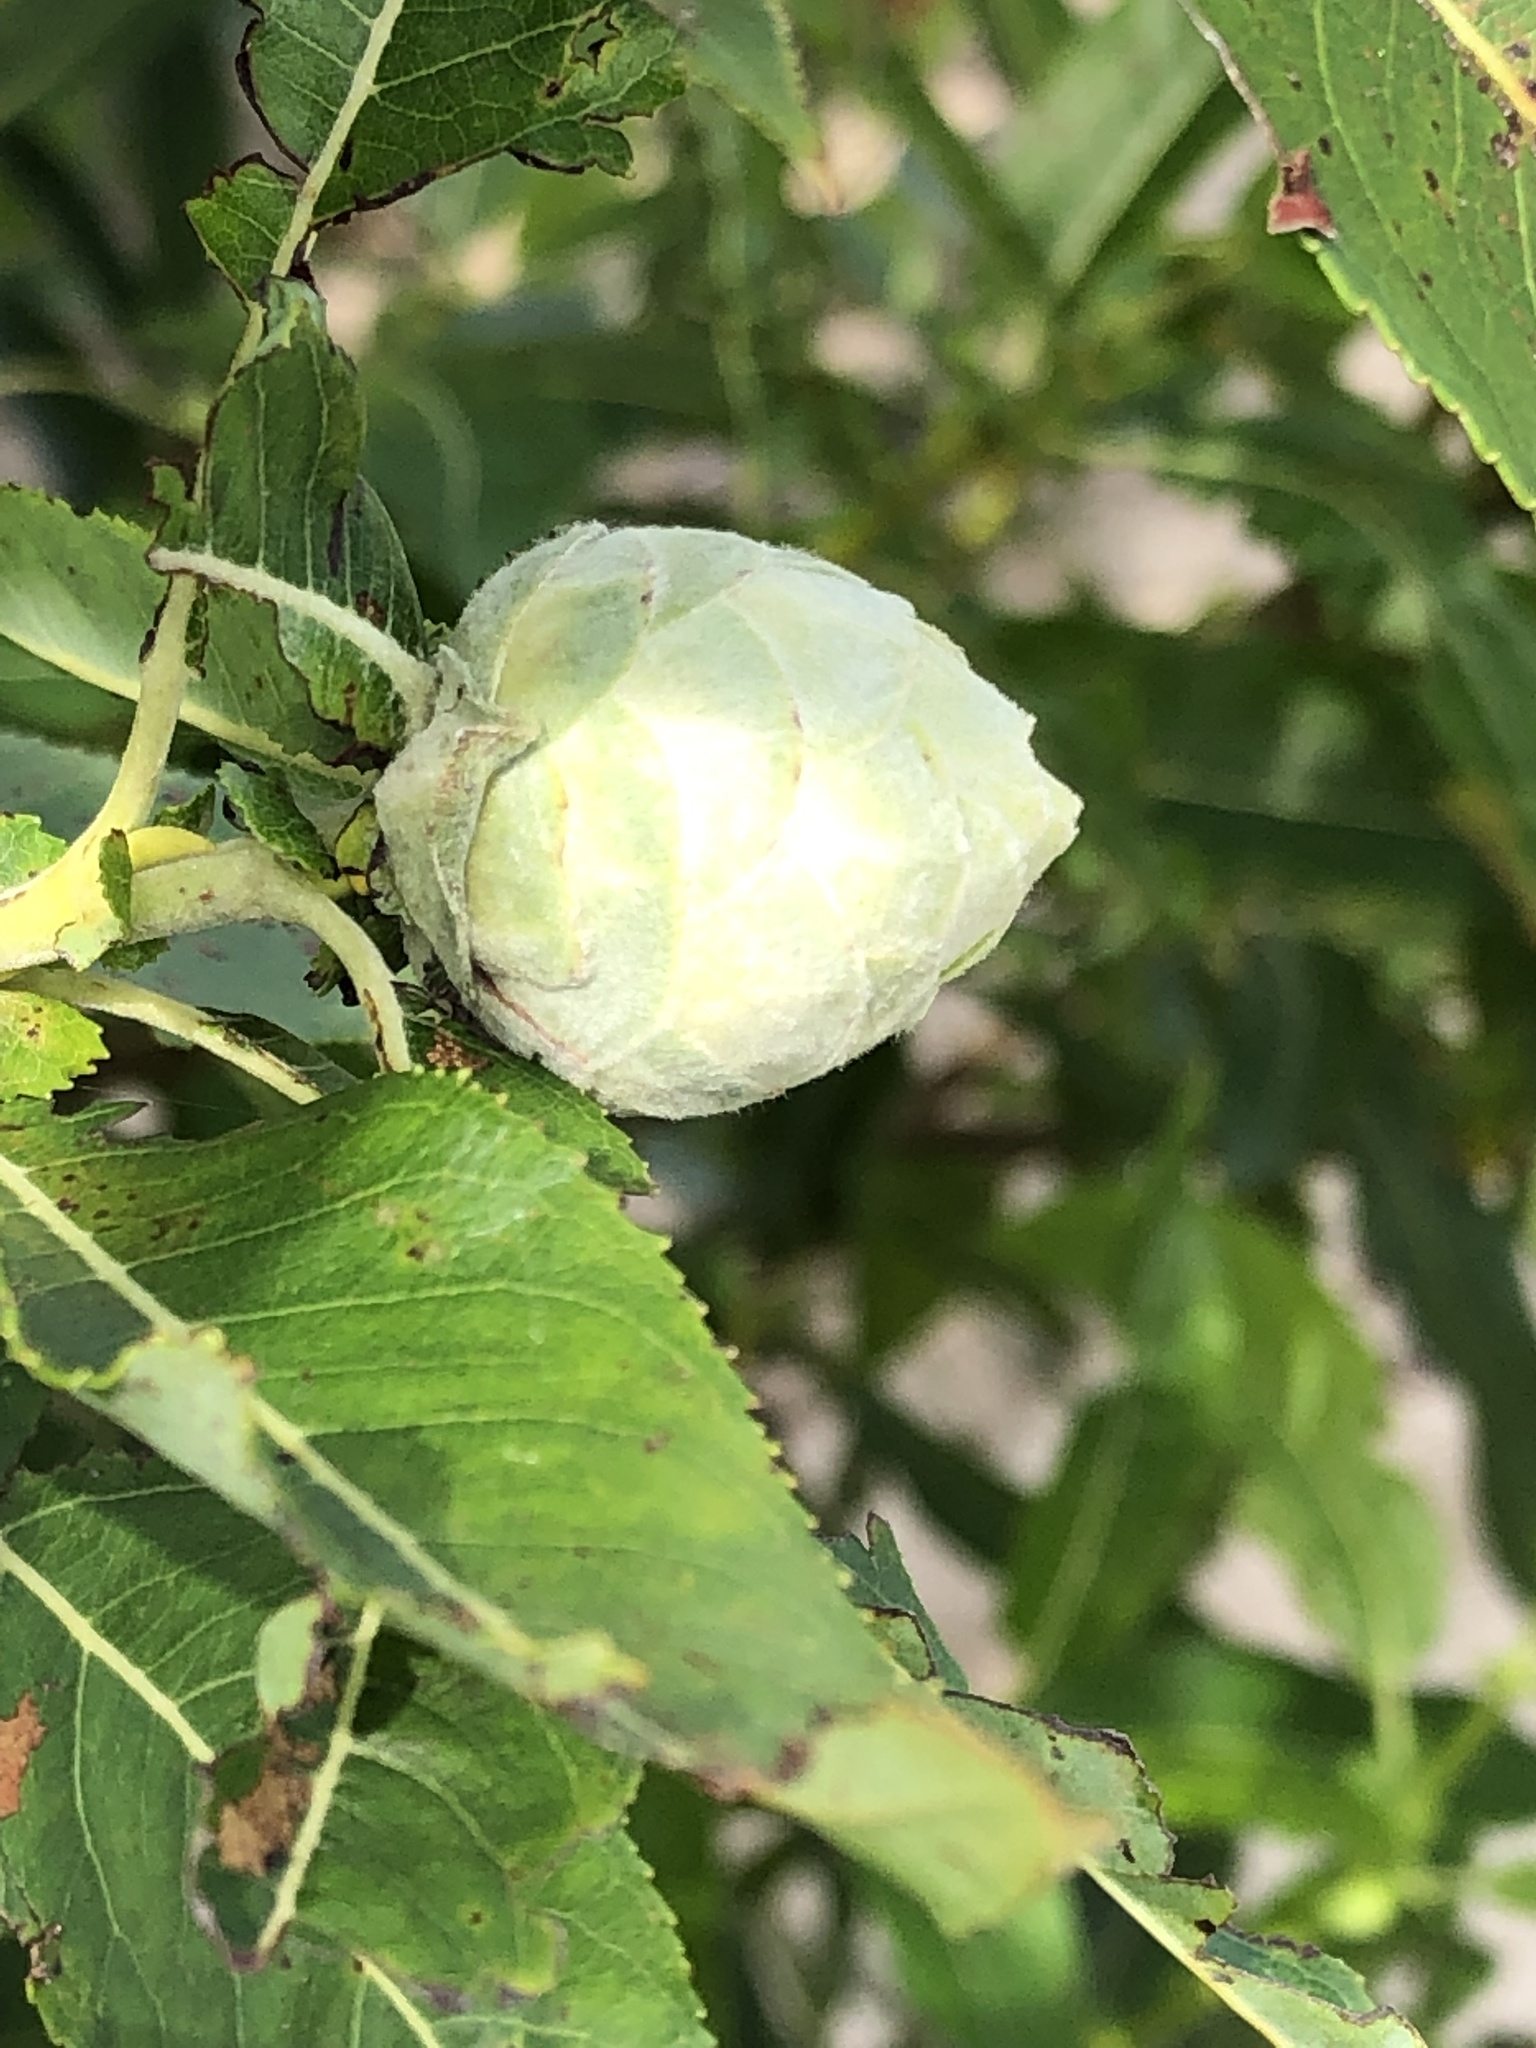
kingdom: Animalia
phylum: Arthropoda
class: Insecta
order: Diptera
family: Cecidomyiidae
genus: Rabdophaga
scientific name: Rabdophaga strobiloides
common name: Willow pinecone gall midge
